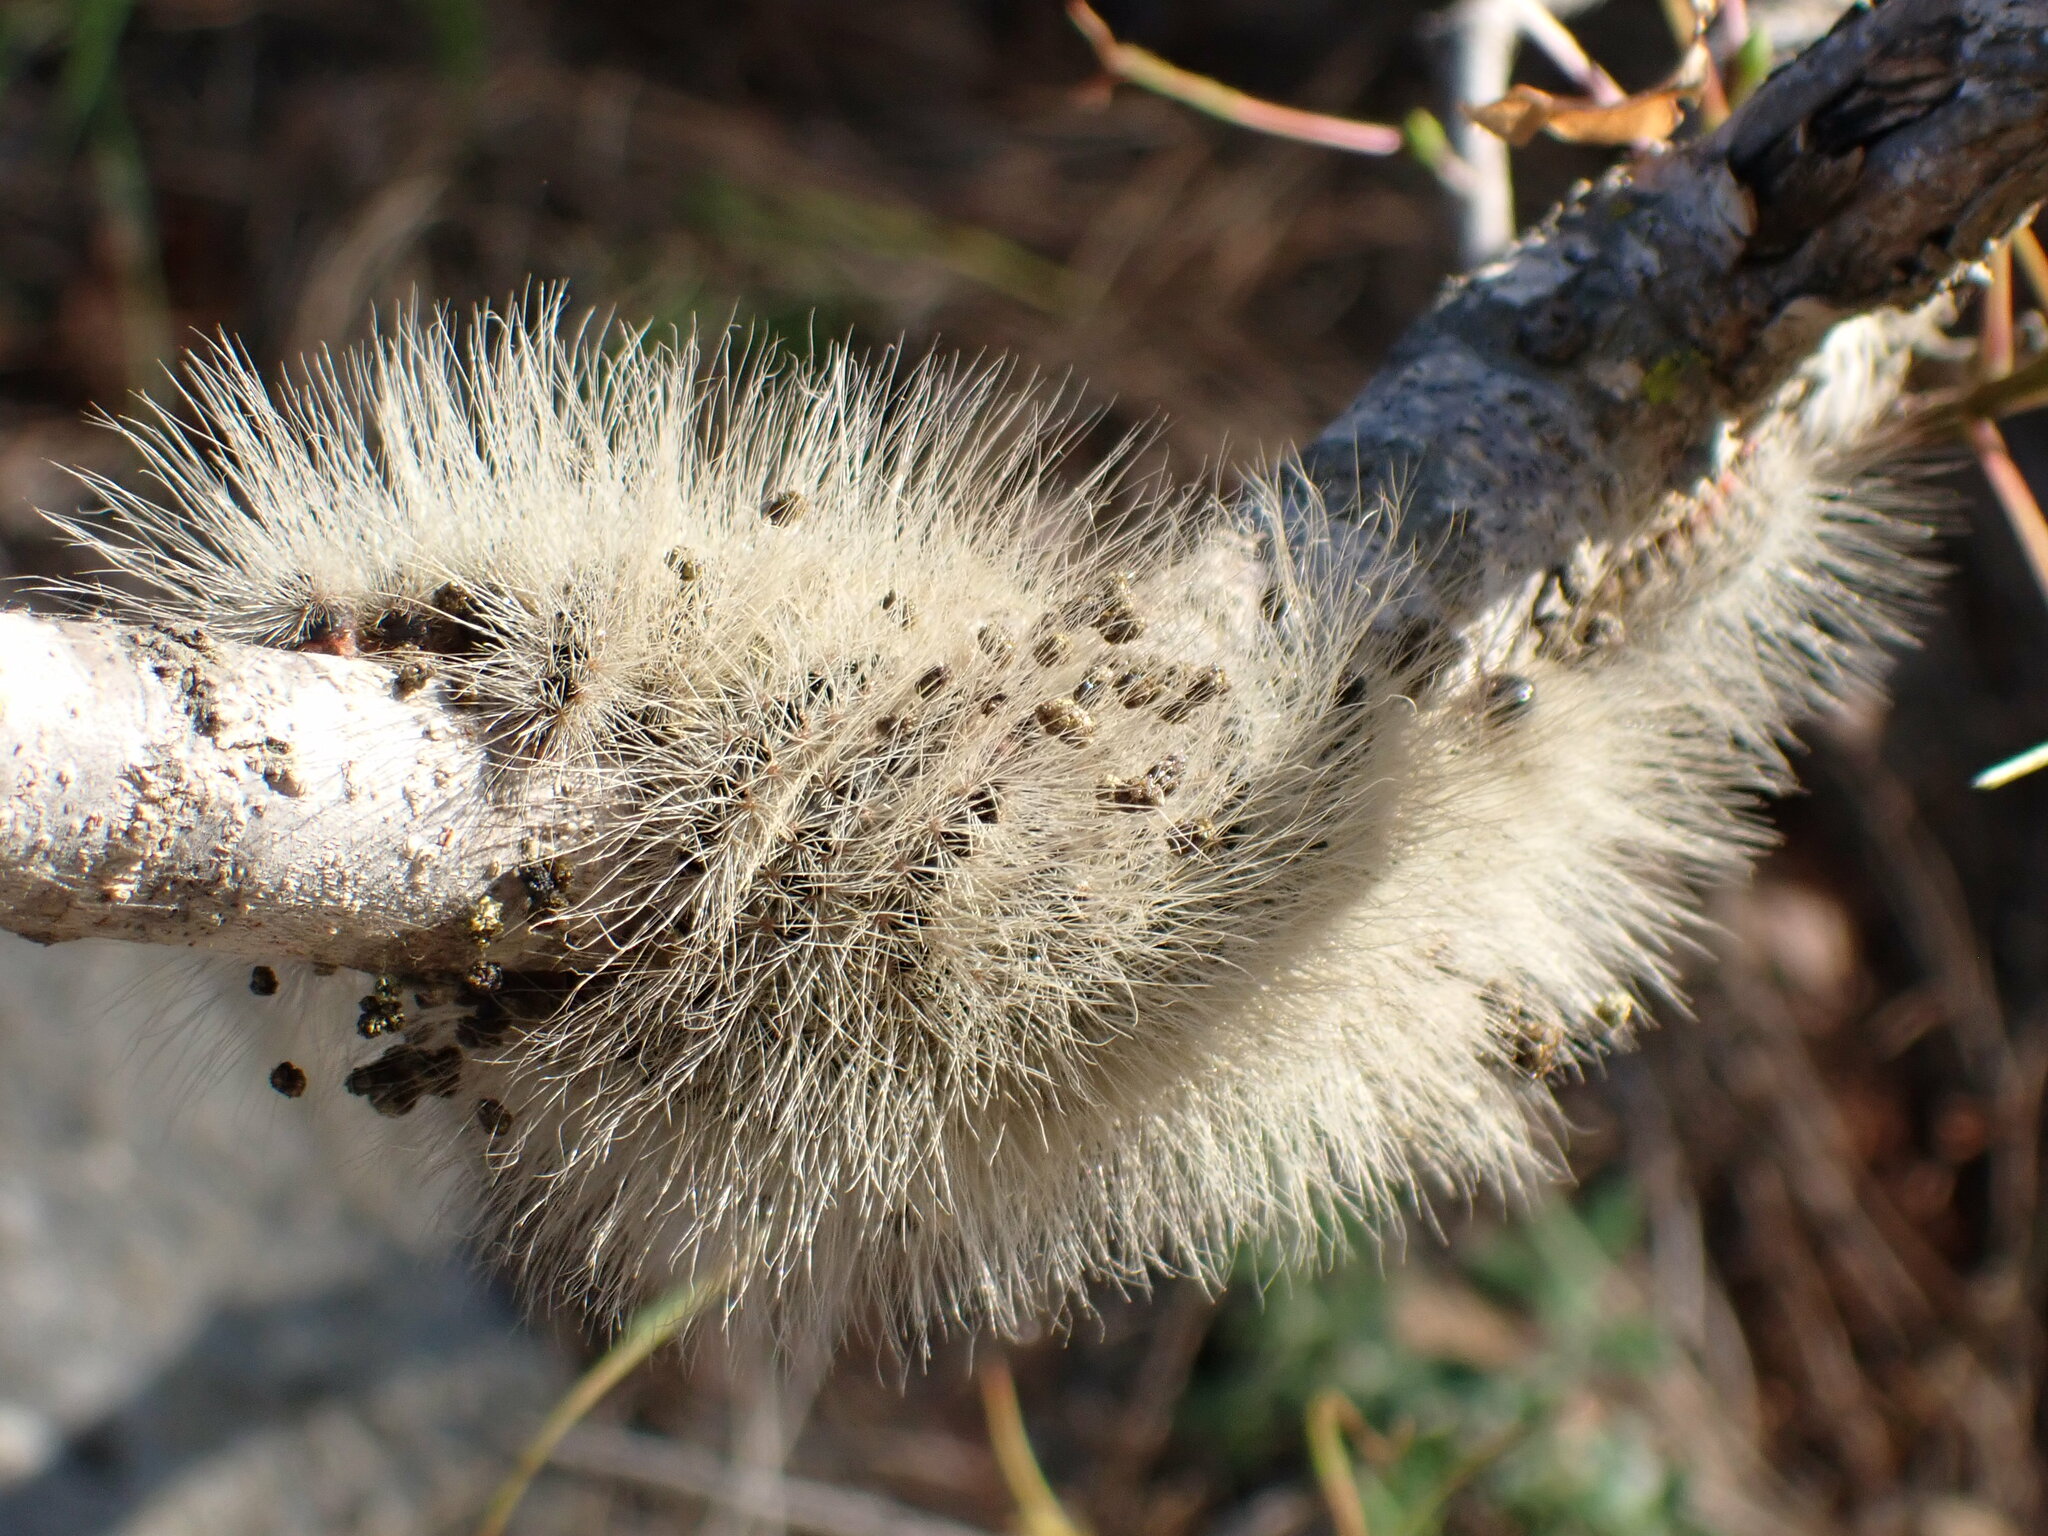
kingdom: Animalia
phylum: Arthropoda
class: Insecta
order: Lepidoptera
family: Notodontidae
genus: Thaumetopoea
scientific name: Thaumetopoea solitaria
